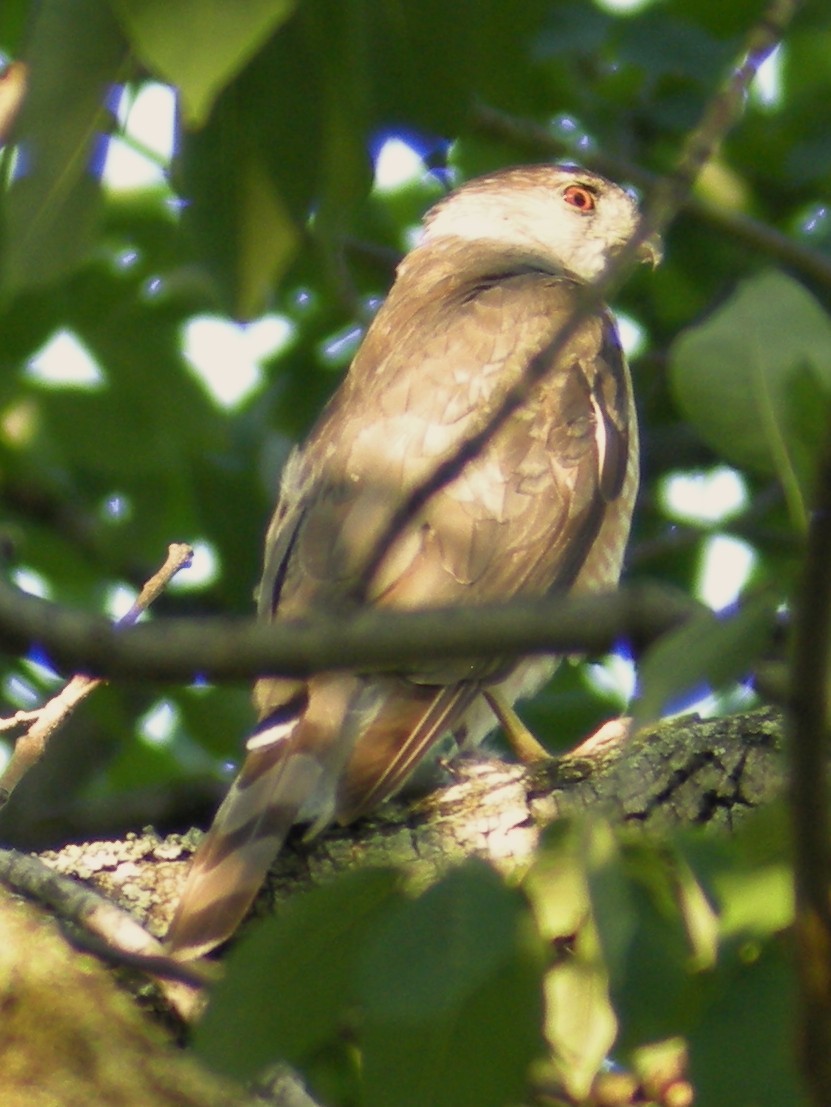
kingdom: Animalia
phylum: Chordata
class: Aves
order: Accipitriformes
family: Accipitridae
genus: Accipiter
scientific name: Accipiter cooperii
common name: Cooper's hawk
